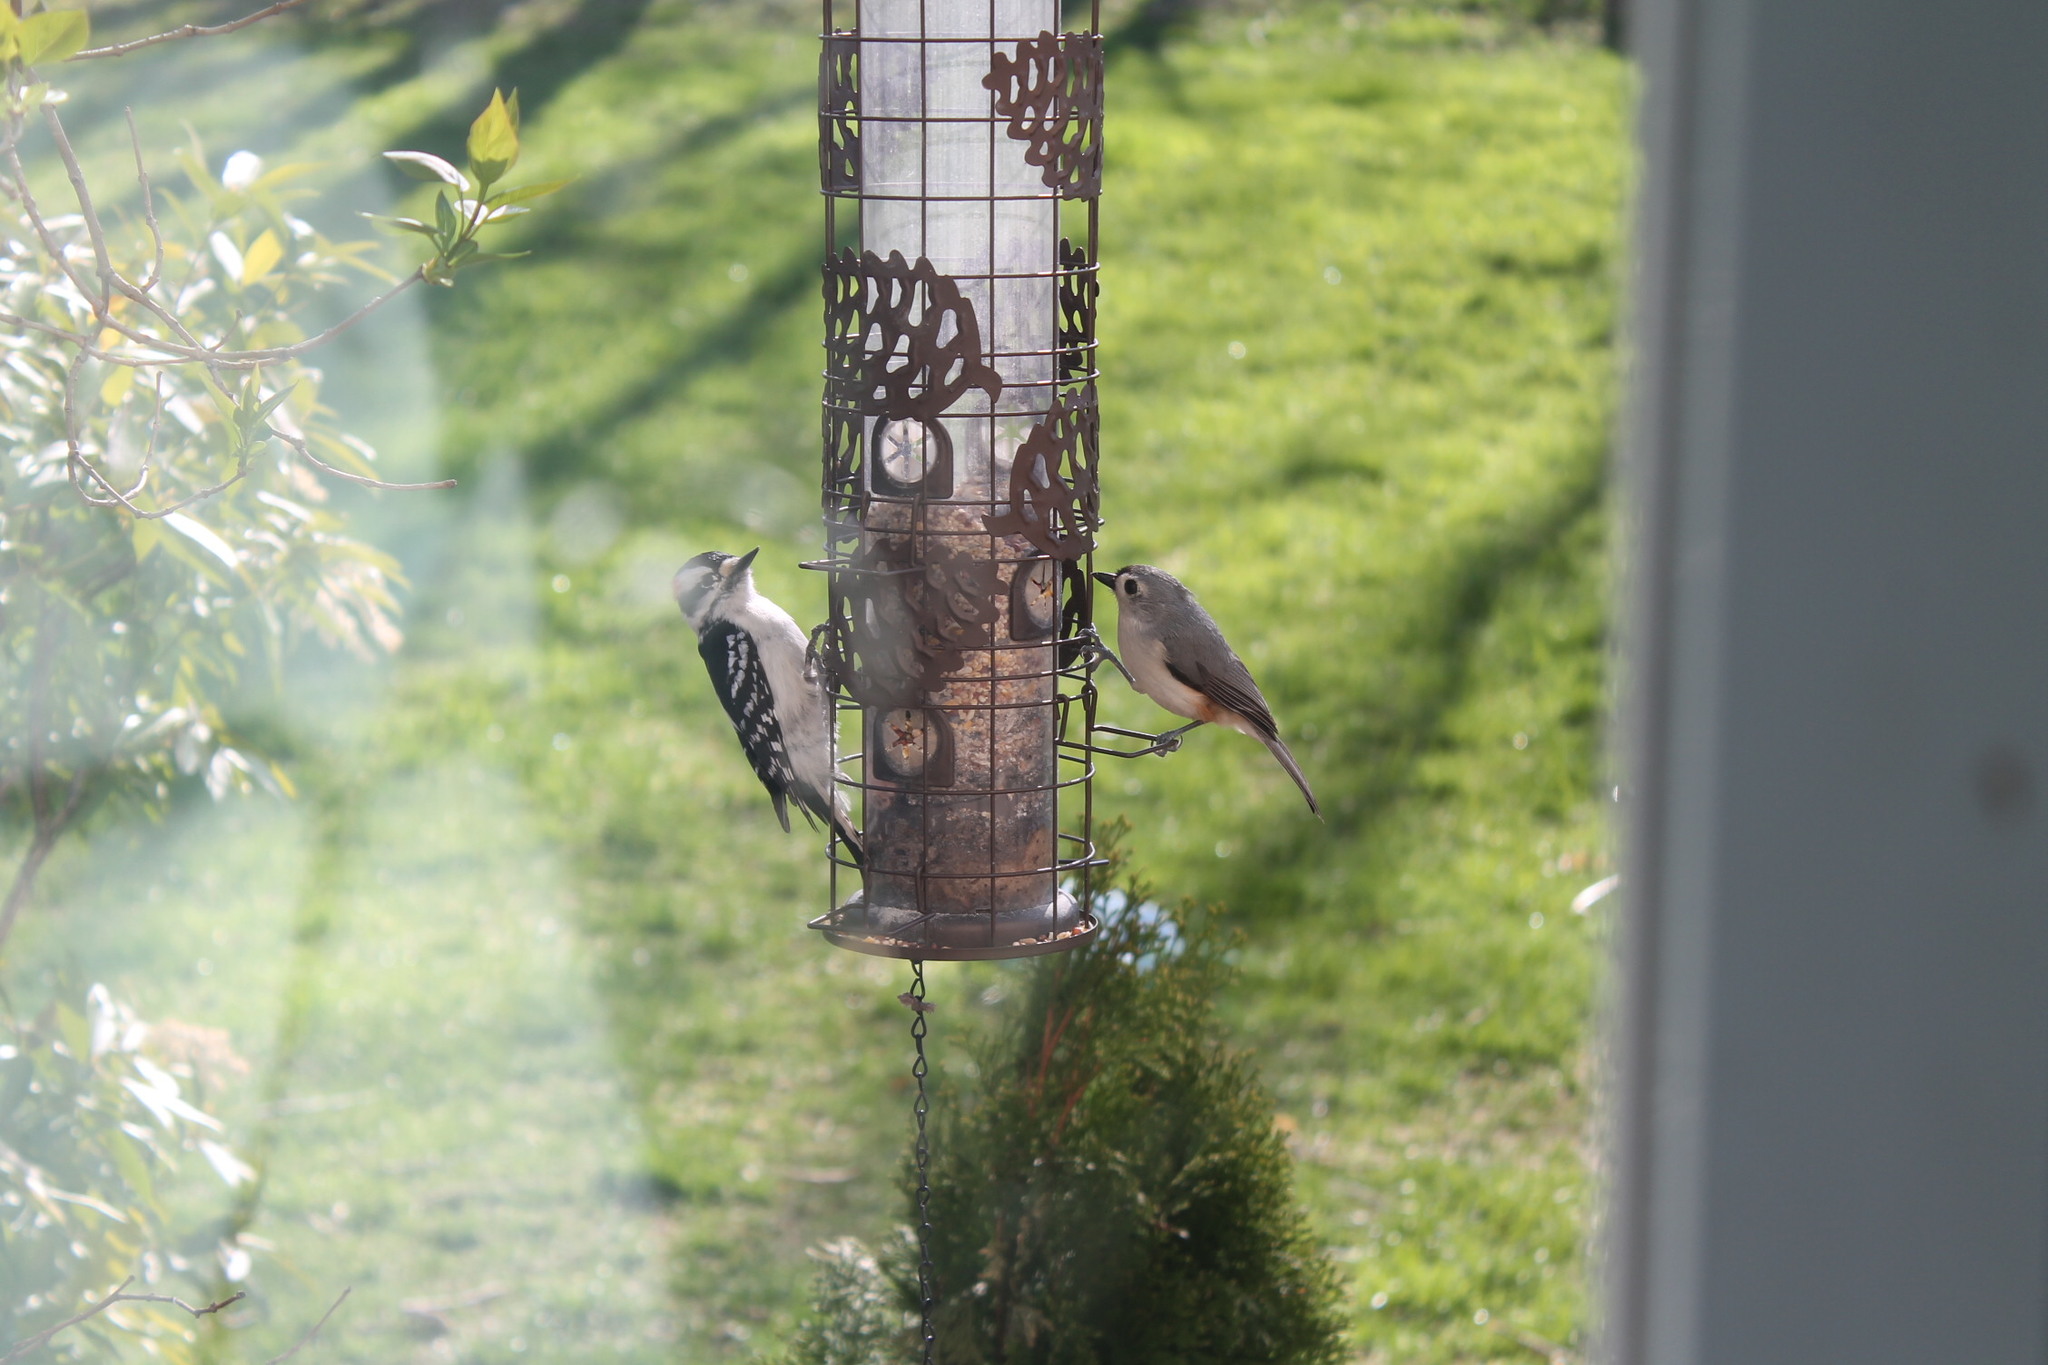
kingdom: Animalia
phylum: Chordata
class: Aves
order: Piciformes
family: Picidae
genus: Dryobates
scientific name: Dryobates pubescens
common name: Downy woodpecker
